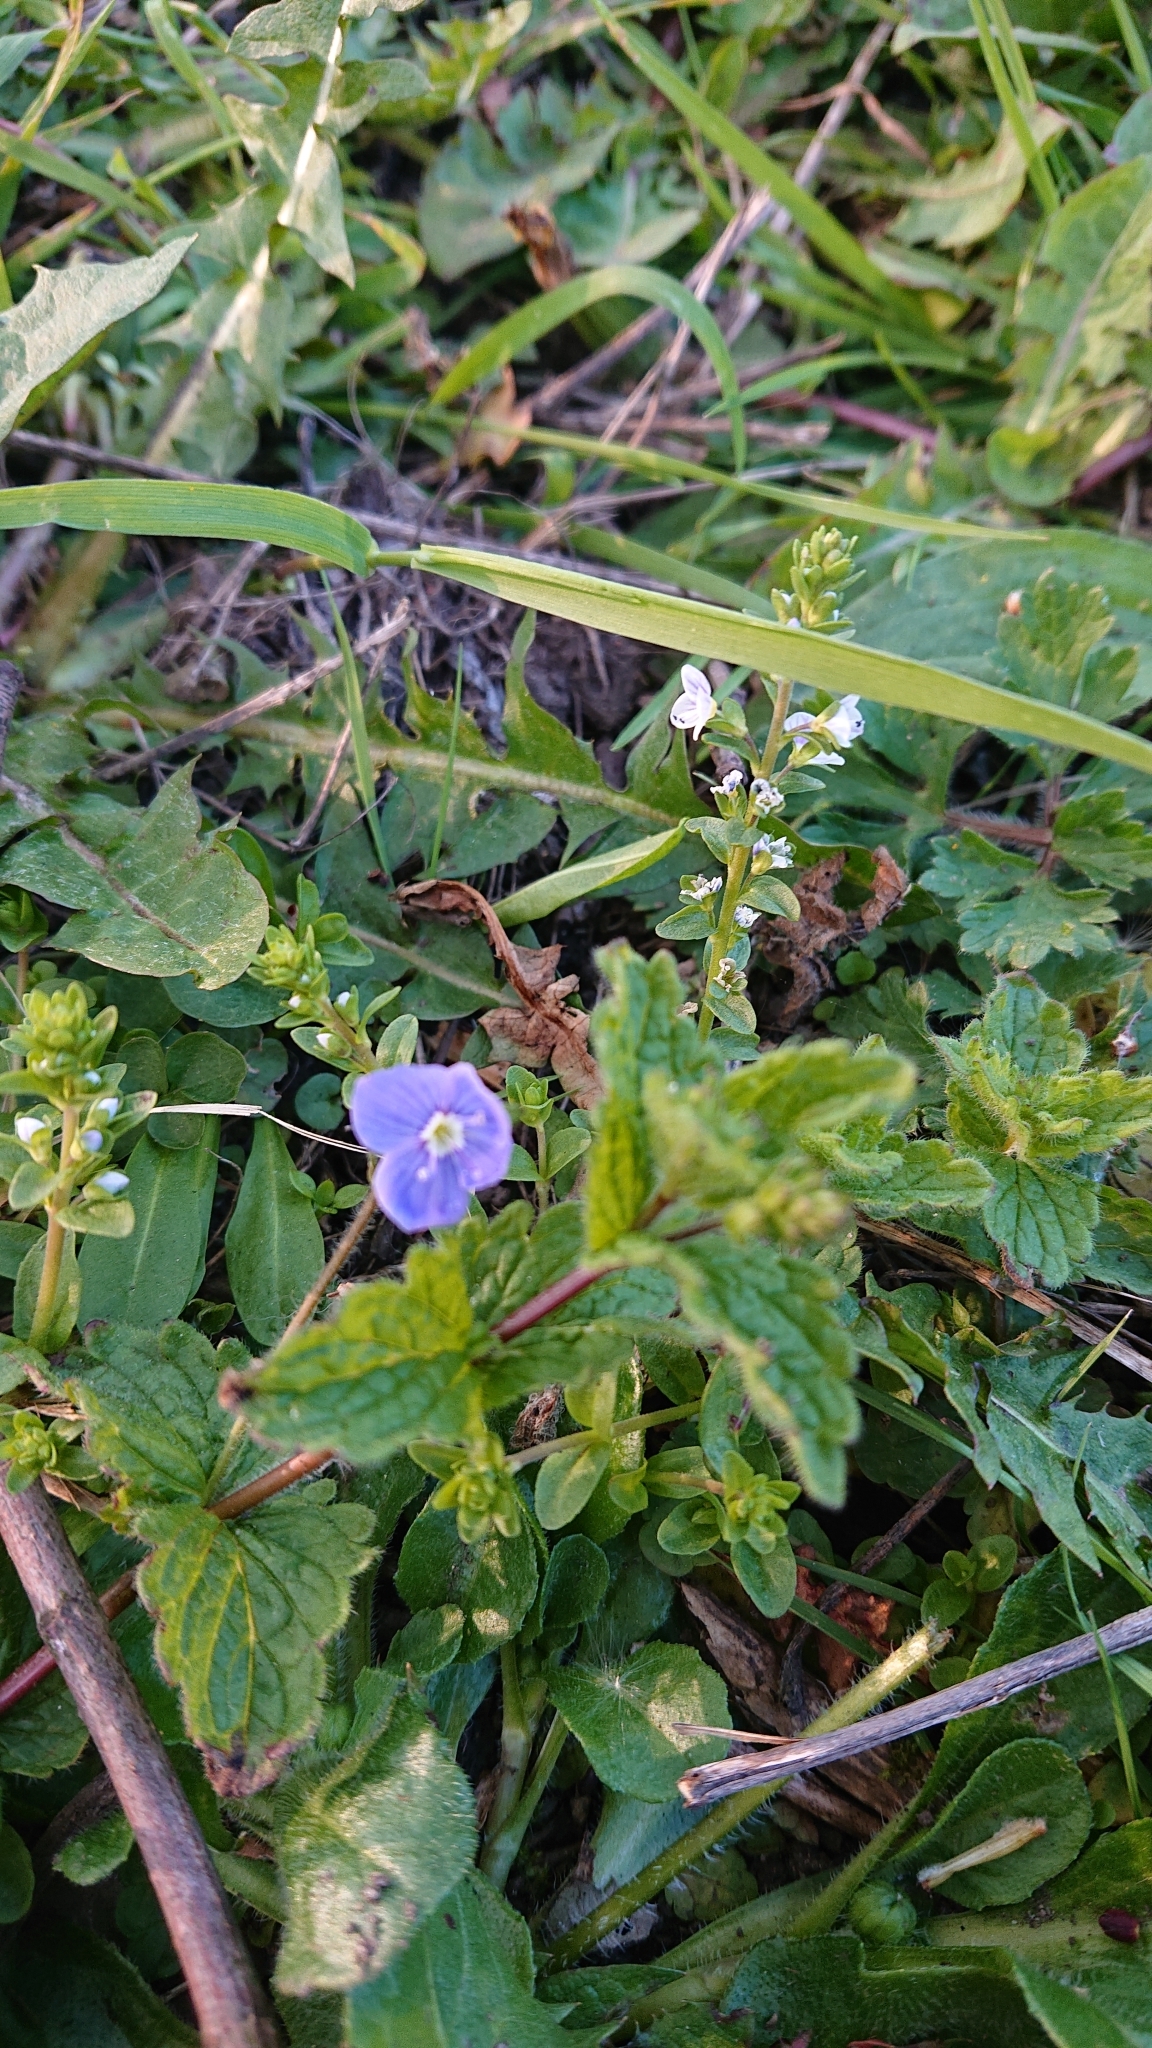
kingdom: Plantae
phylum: Tracheophyta
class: Magnoliopsida
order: Lamiales
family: Plantaginaceae
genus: Veronica
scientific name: Veronica chamaedrys
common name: Germander speedwell
